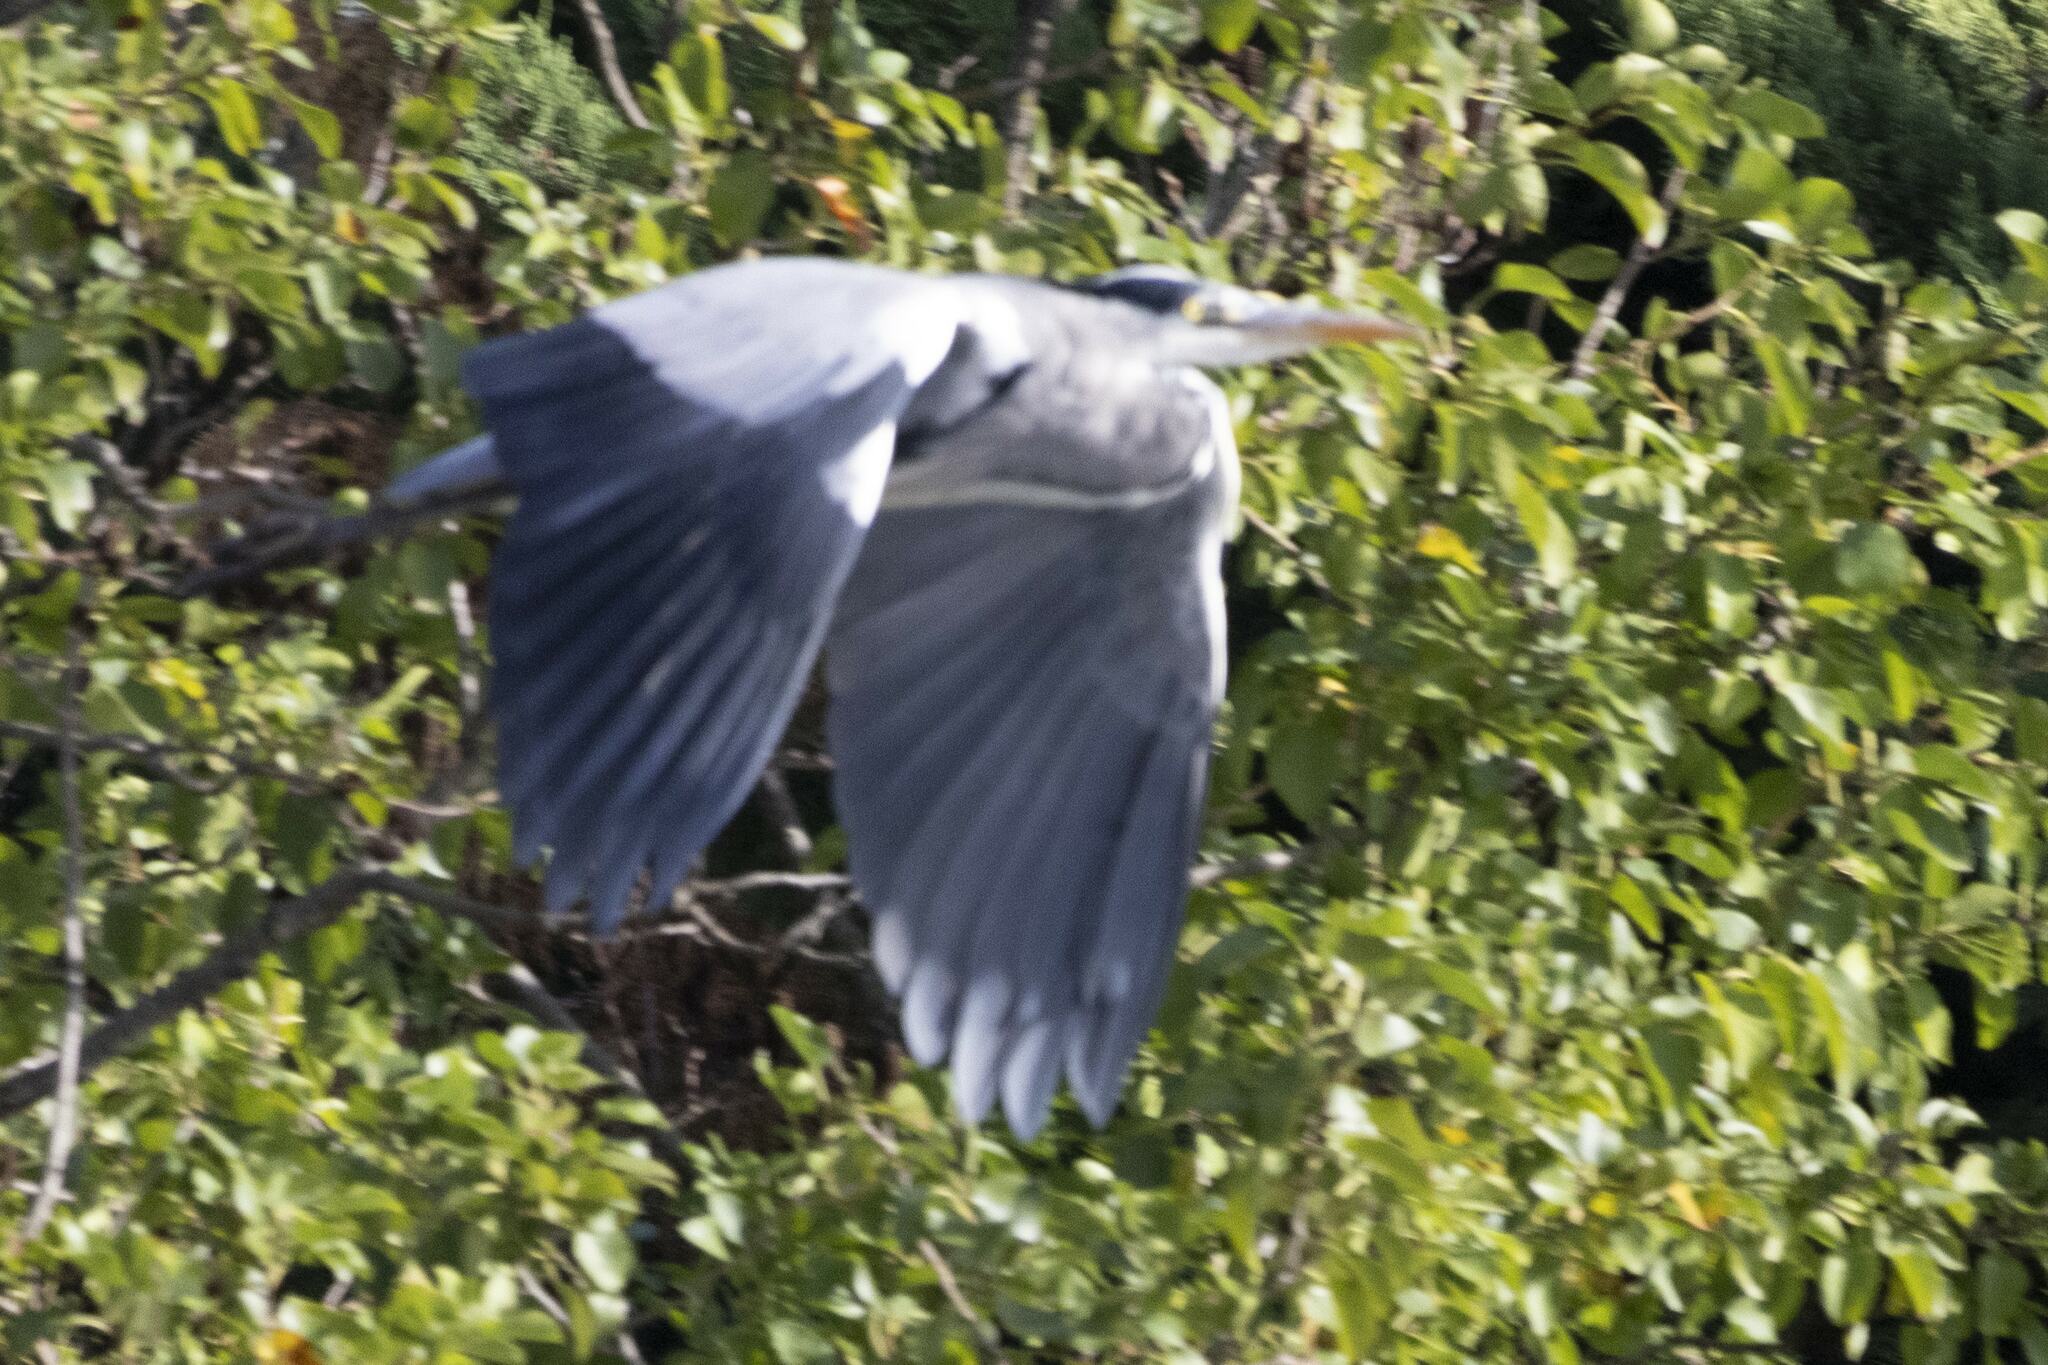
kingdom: Animalia
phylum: Chordata
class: Aves
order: Pelecaniformes
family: Ardeidae
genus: Ardea
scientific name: Ardea cinerea
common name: Grey heron
